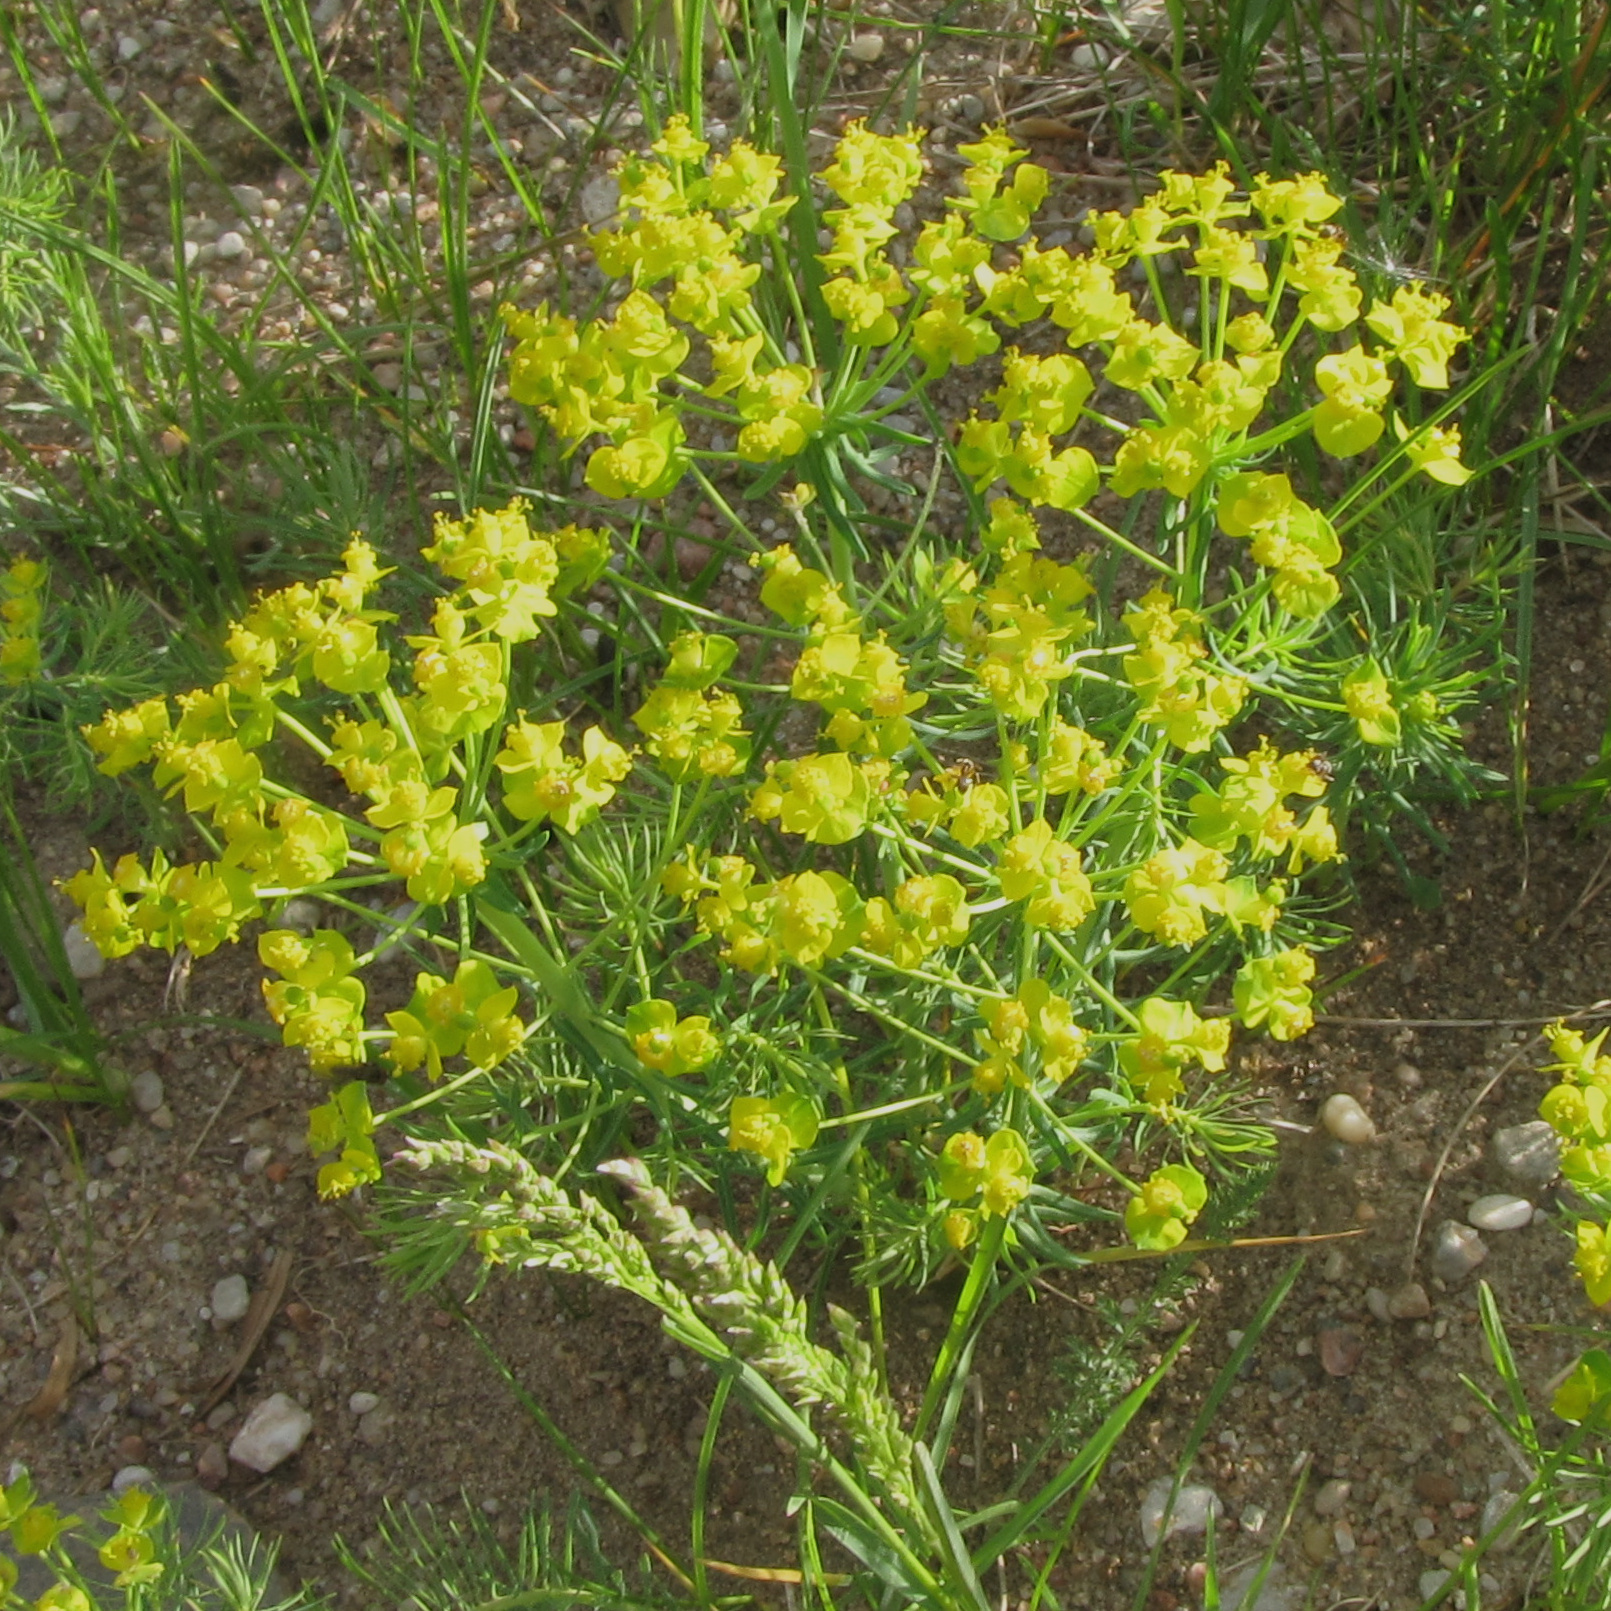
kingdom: Plantae
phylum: Tracheophyta
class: Magnoliopsida
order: Malpighiales
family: Euphorbiaceae
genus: Euphorbia
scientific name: Euphorbia cyparissias
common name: Cypress spurge
